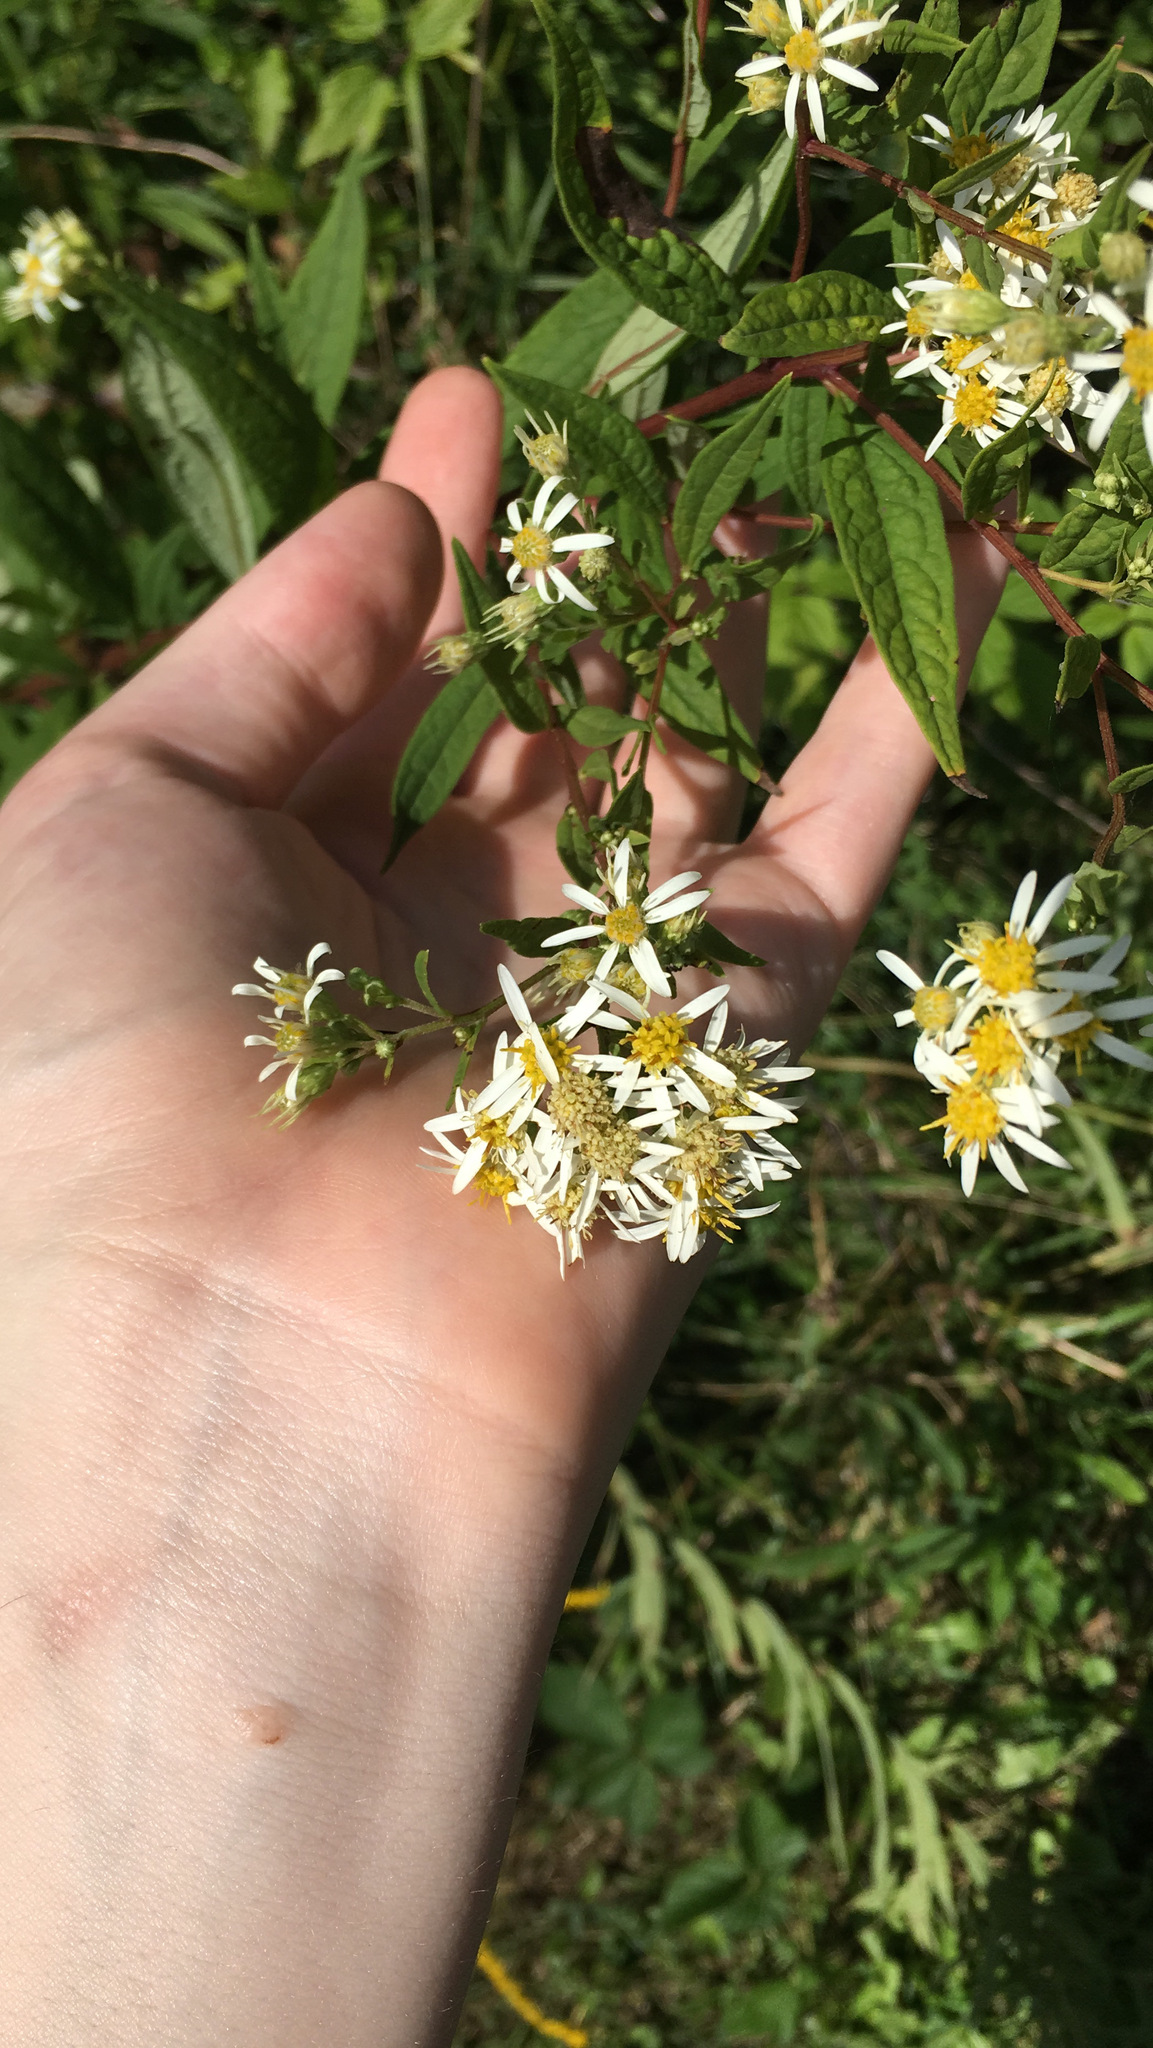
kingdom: Plantae
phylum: Tracheophyta
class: Magnoliopsida
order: Asterales
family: Asteraceae
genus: Doellingeria
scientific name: Doellingeria umbellata
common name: Flat-top white aster
